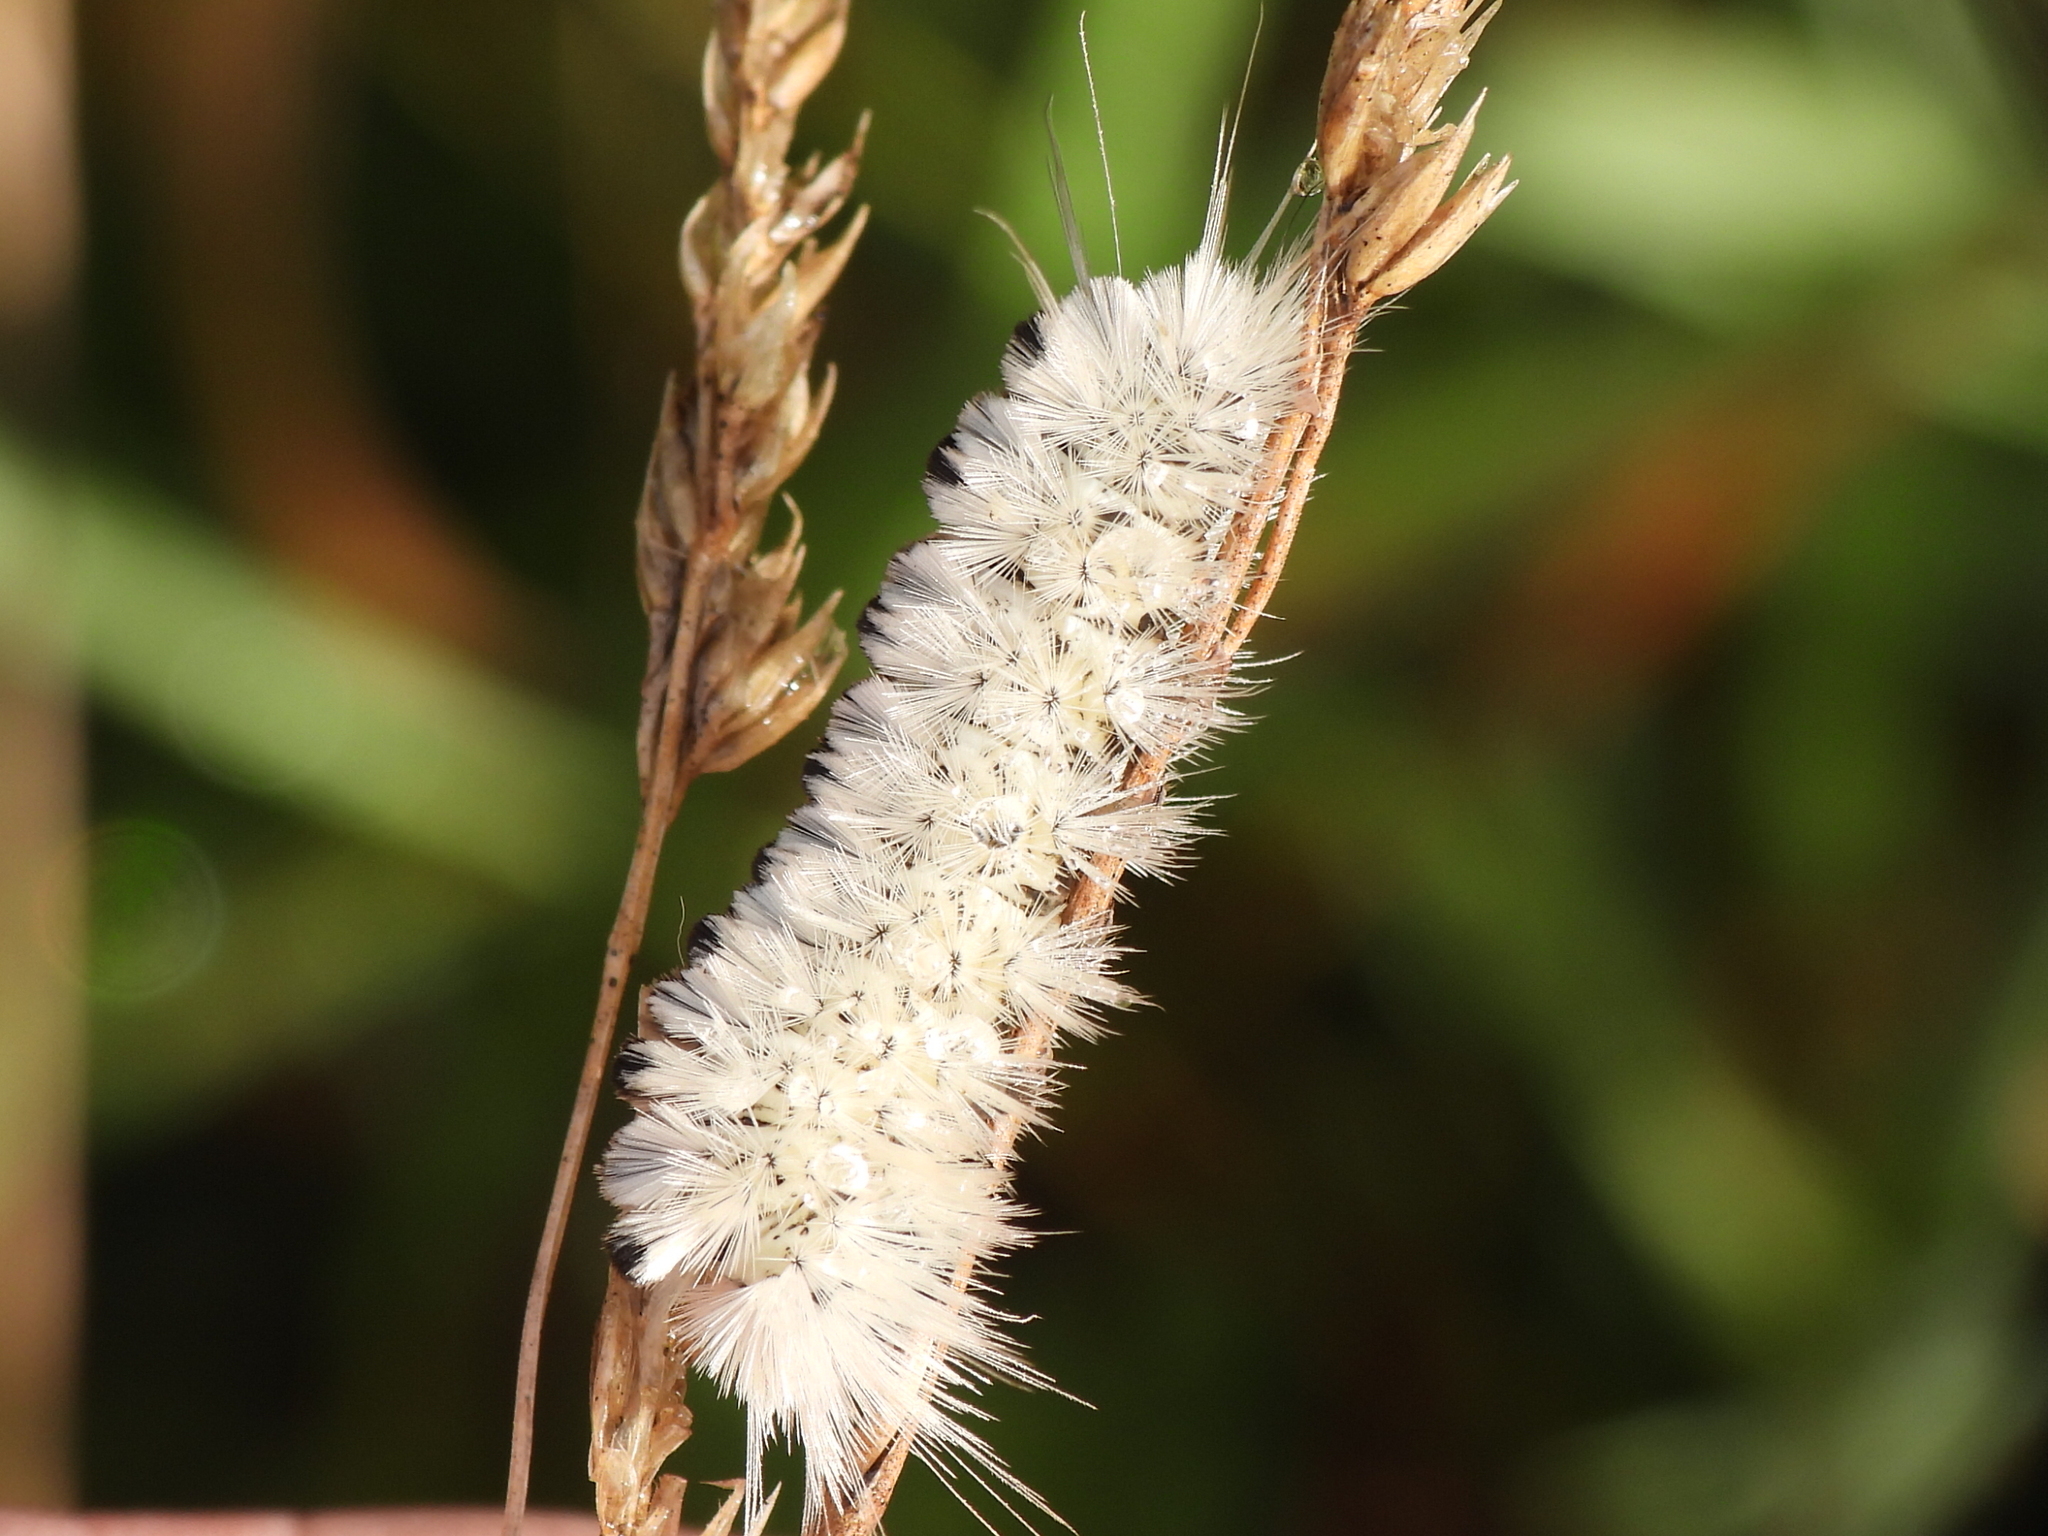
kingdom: Animalia
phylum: Arthropoda
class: Insecta
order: Lepidoptera
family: Erebidae
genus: Lophocampa
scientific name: Lophocampa caryae
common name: Hickory tussock moth
